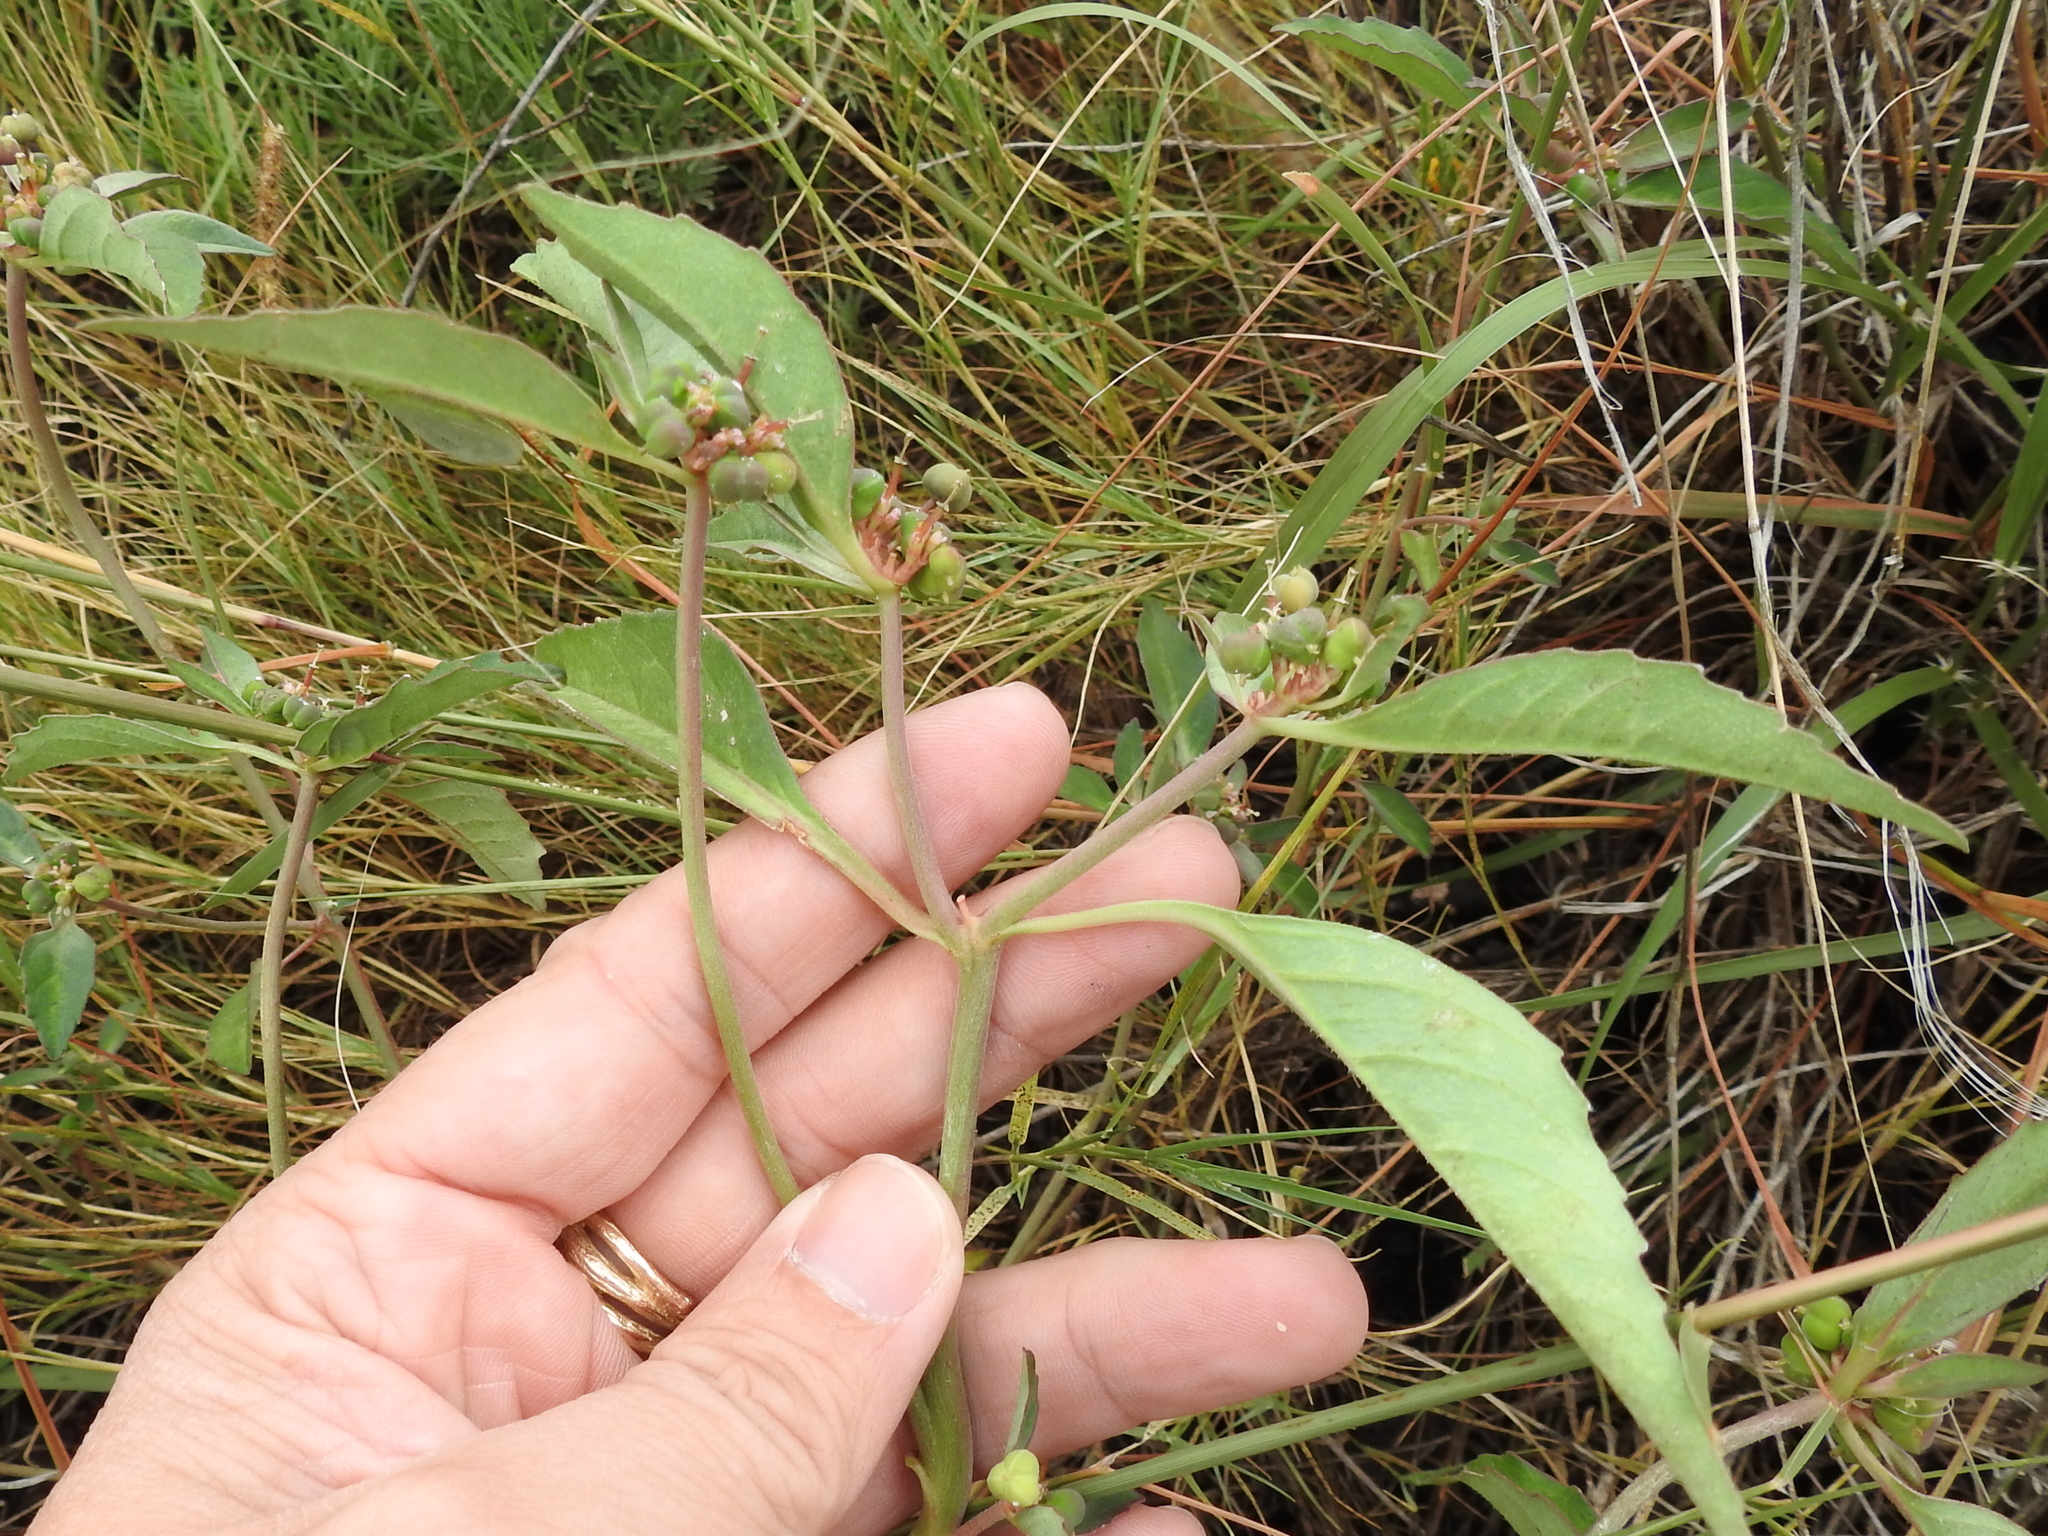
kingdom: Plantae
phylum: Tracheophyta
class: Magnoliopsida
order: Malpighiales
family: Euphorbiaceae
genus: Euphorbia
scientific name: Euphorbia davidii
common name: David's spurge
